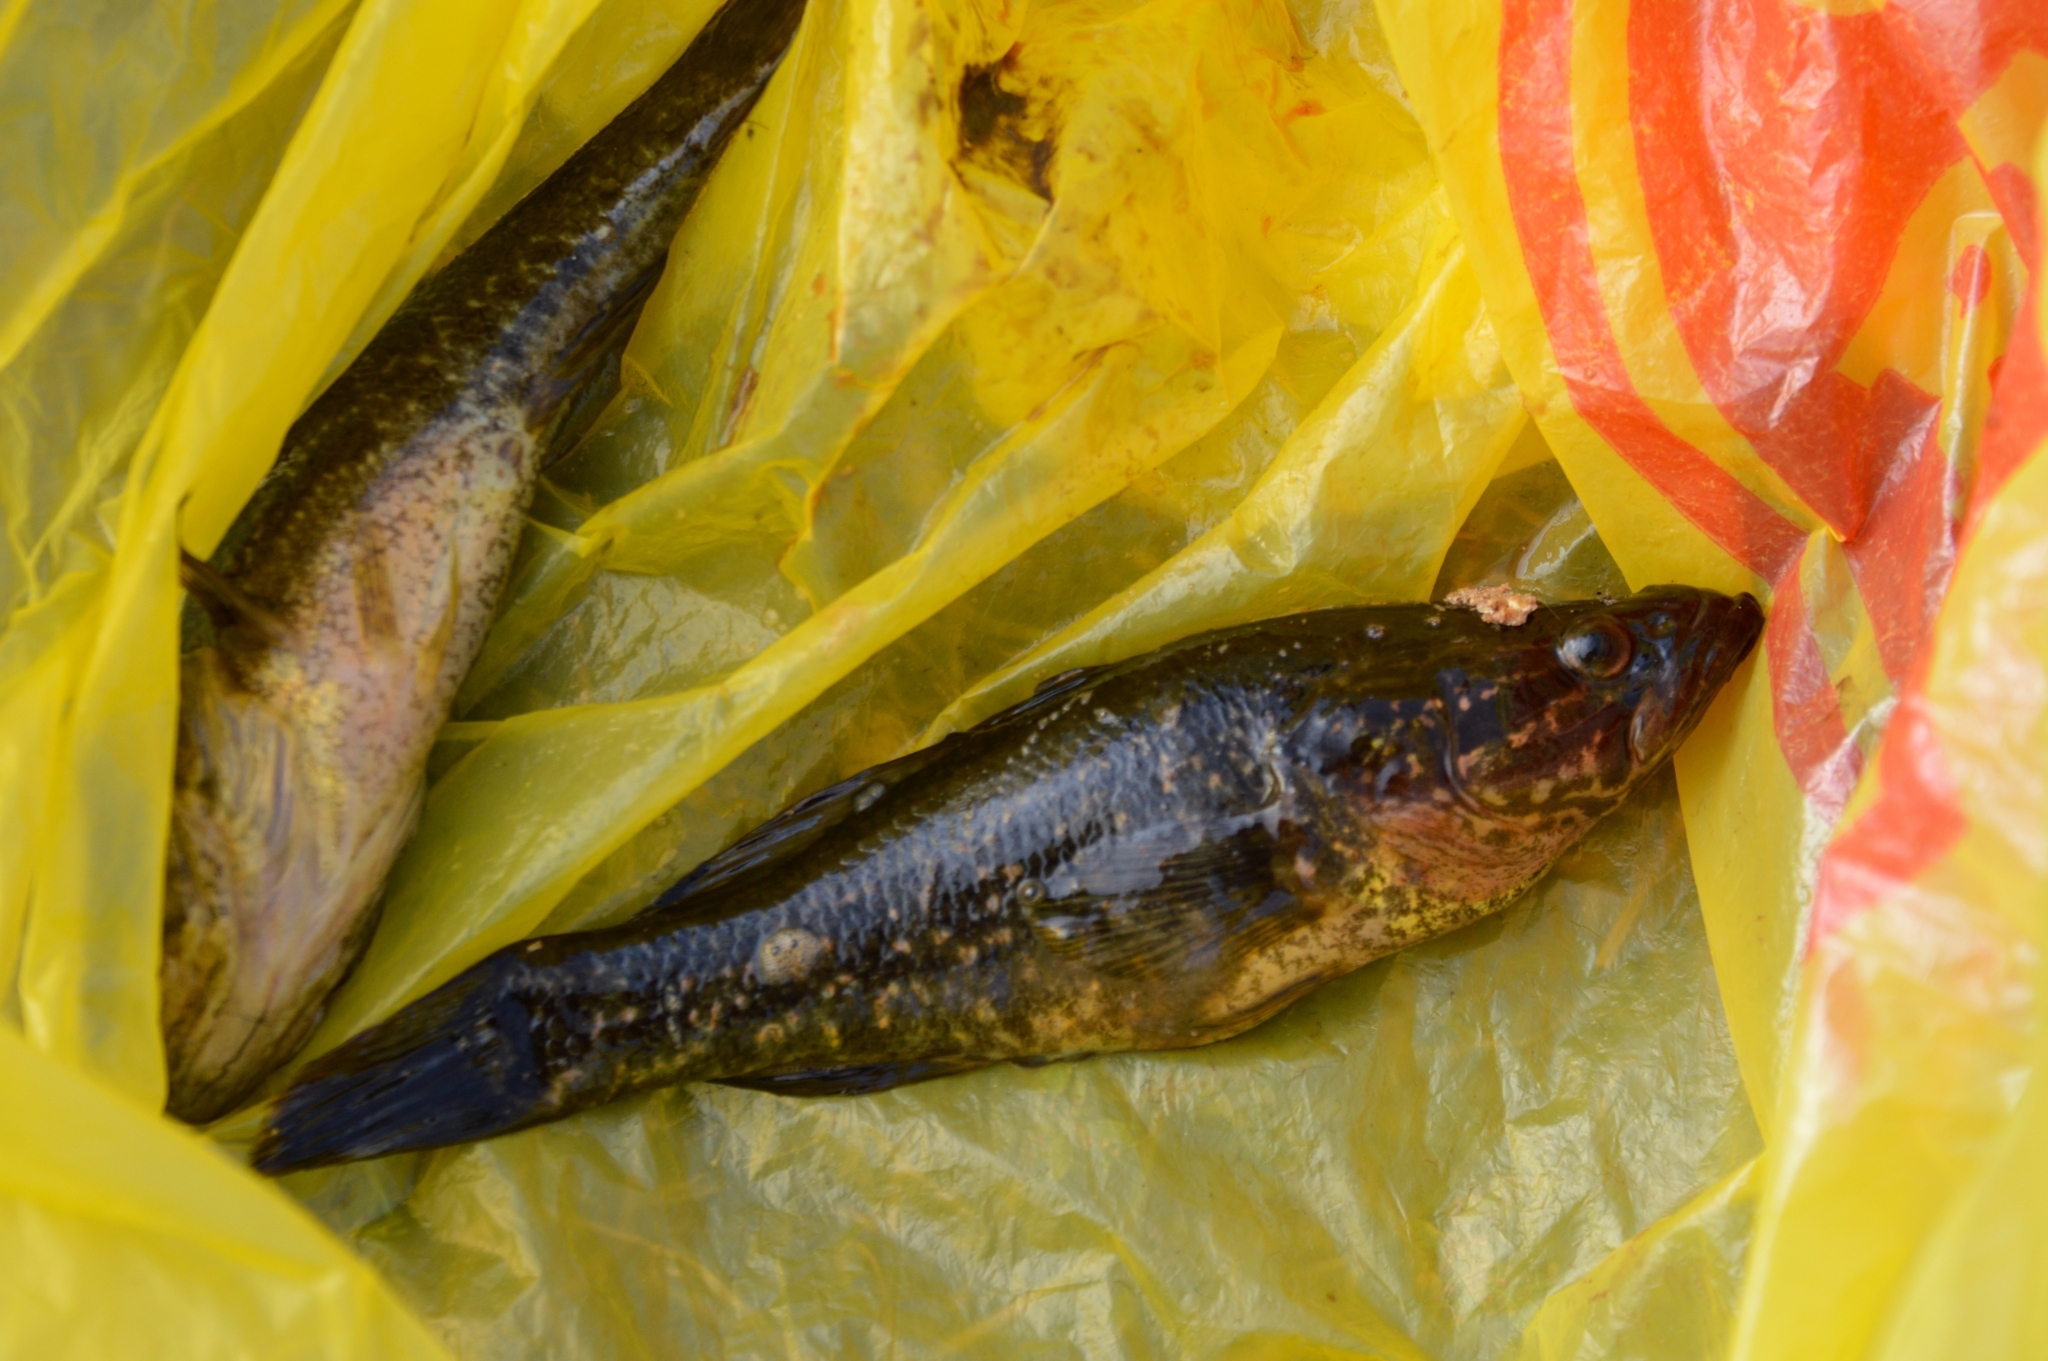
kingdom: Animalia
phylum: Chordata
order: Perciformes
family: Odontobutidae
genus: Perccottus
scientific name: Perccottus glenii
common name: Amur sleeper
